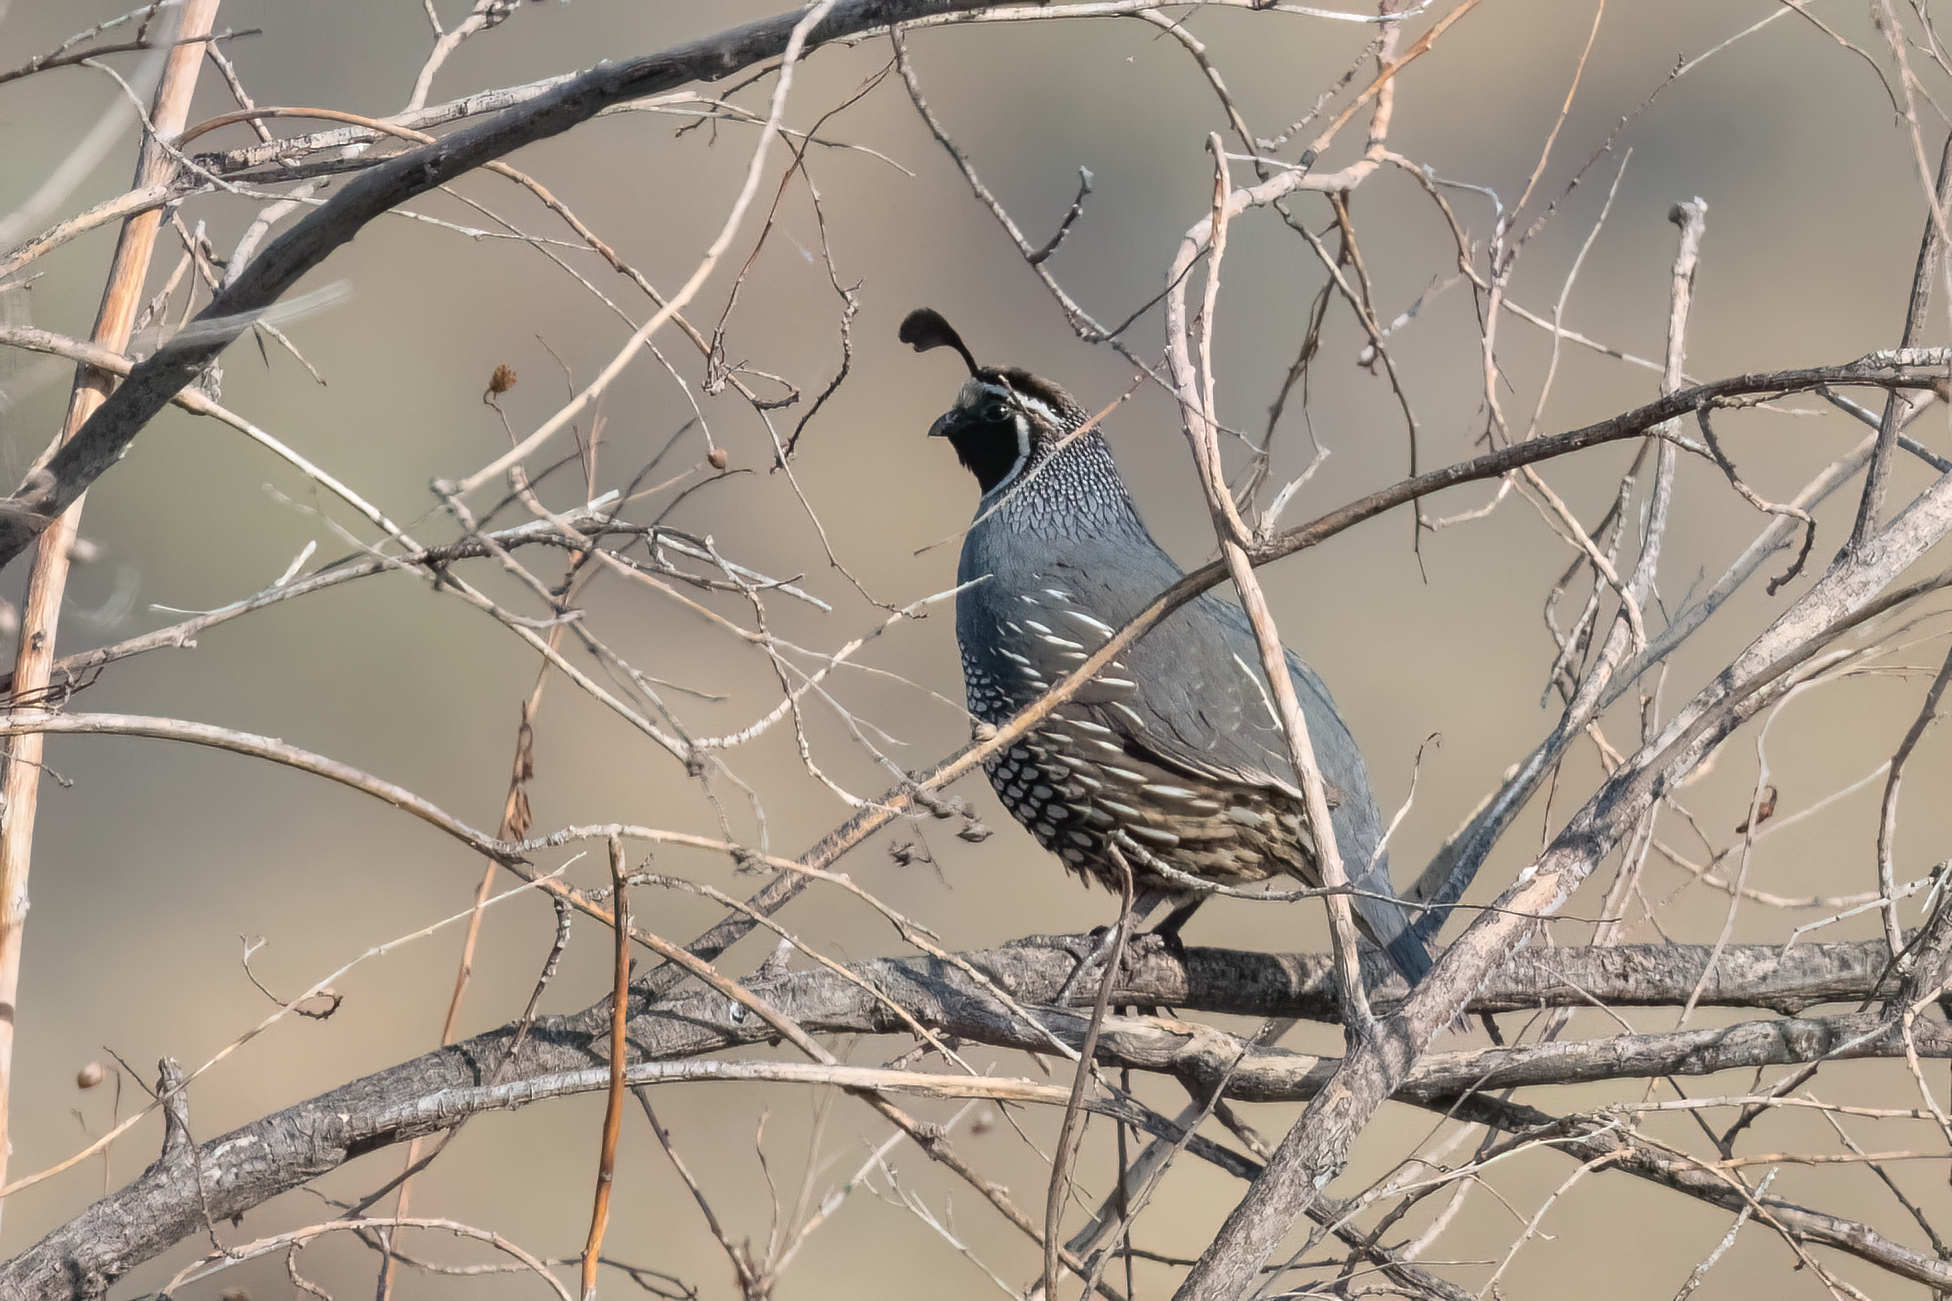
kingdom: Animalia
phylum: Chordata
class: Aves
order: Galliformes
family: Odontophoridae
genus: Callipepla
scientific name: Callipepla californica
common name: California quail
